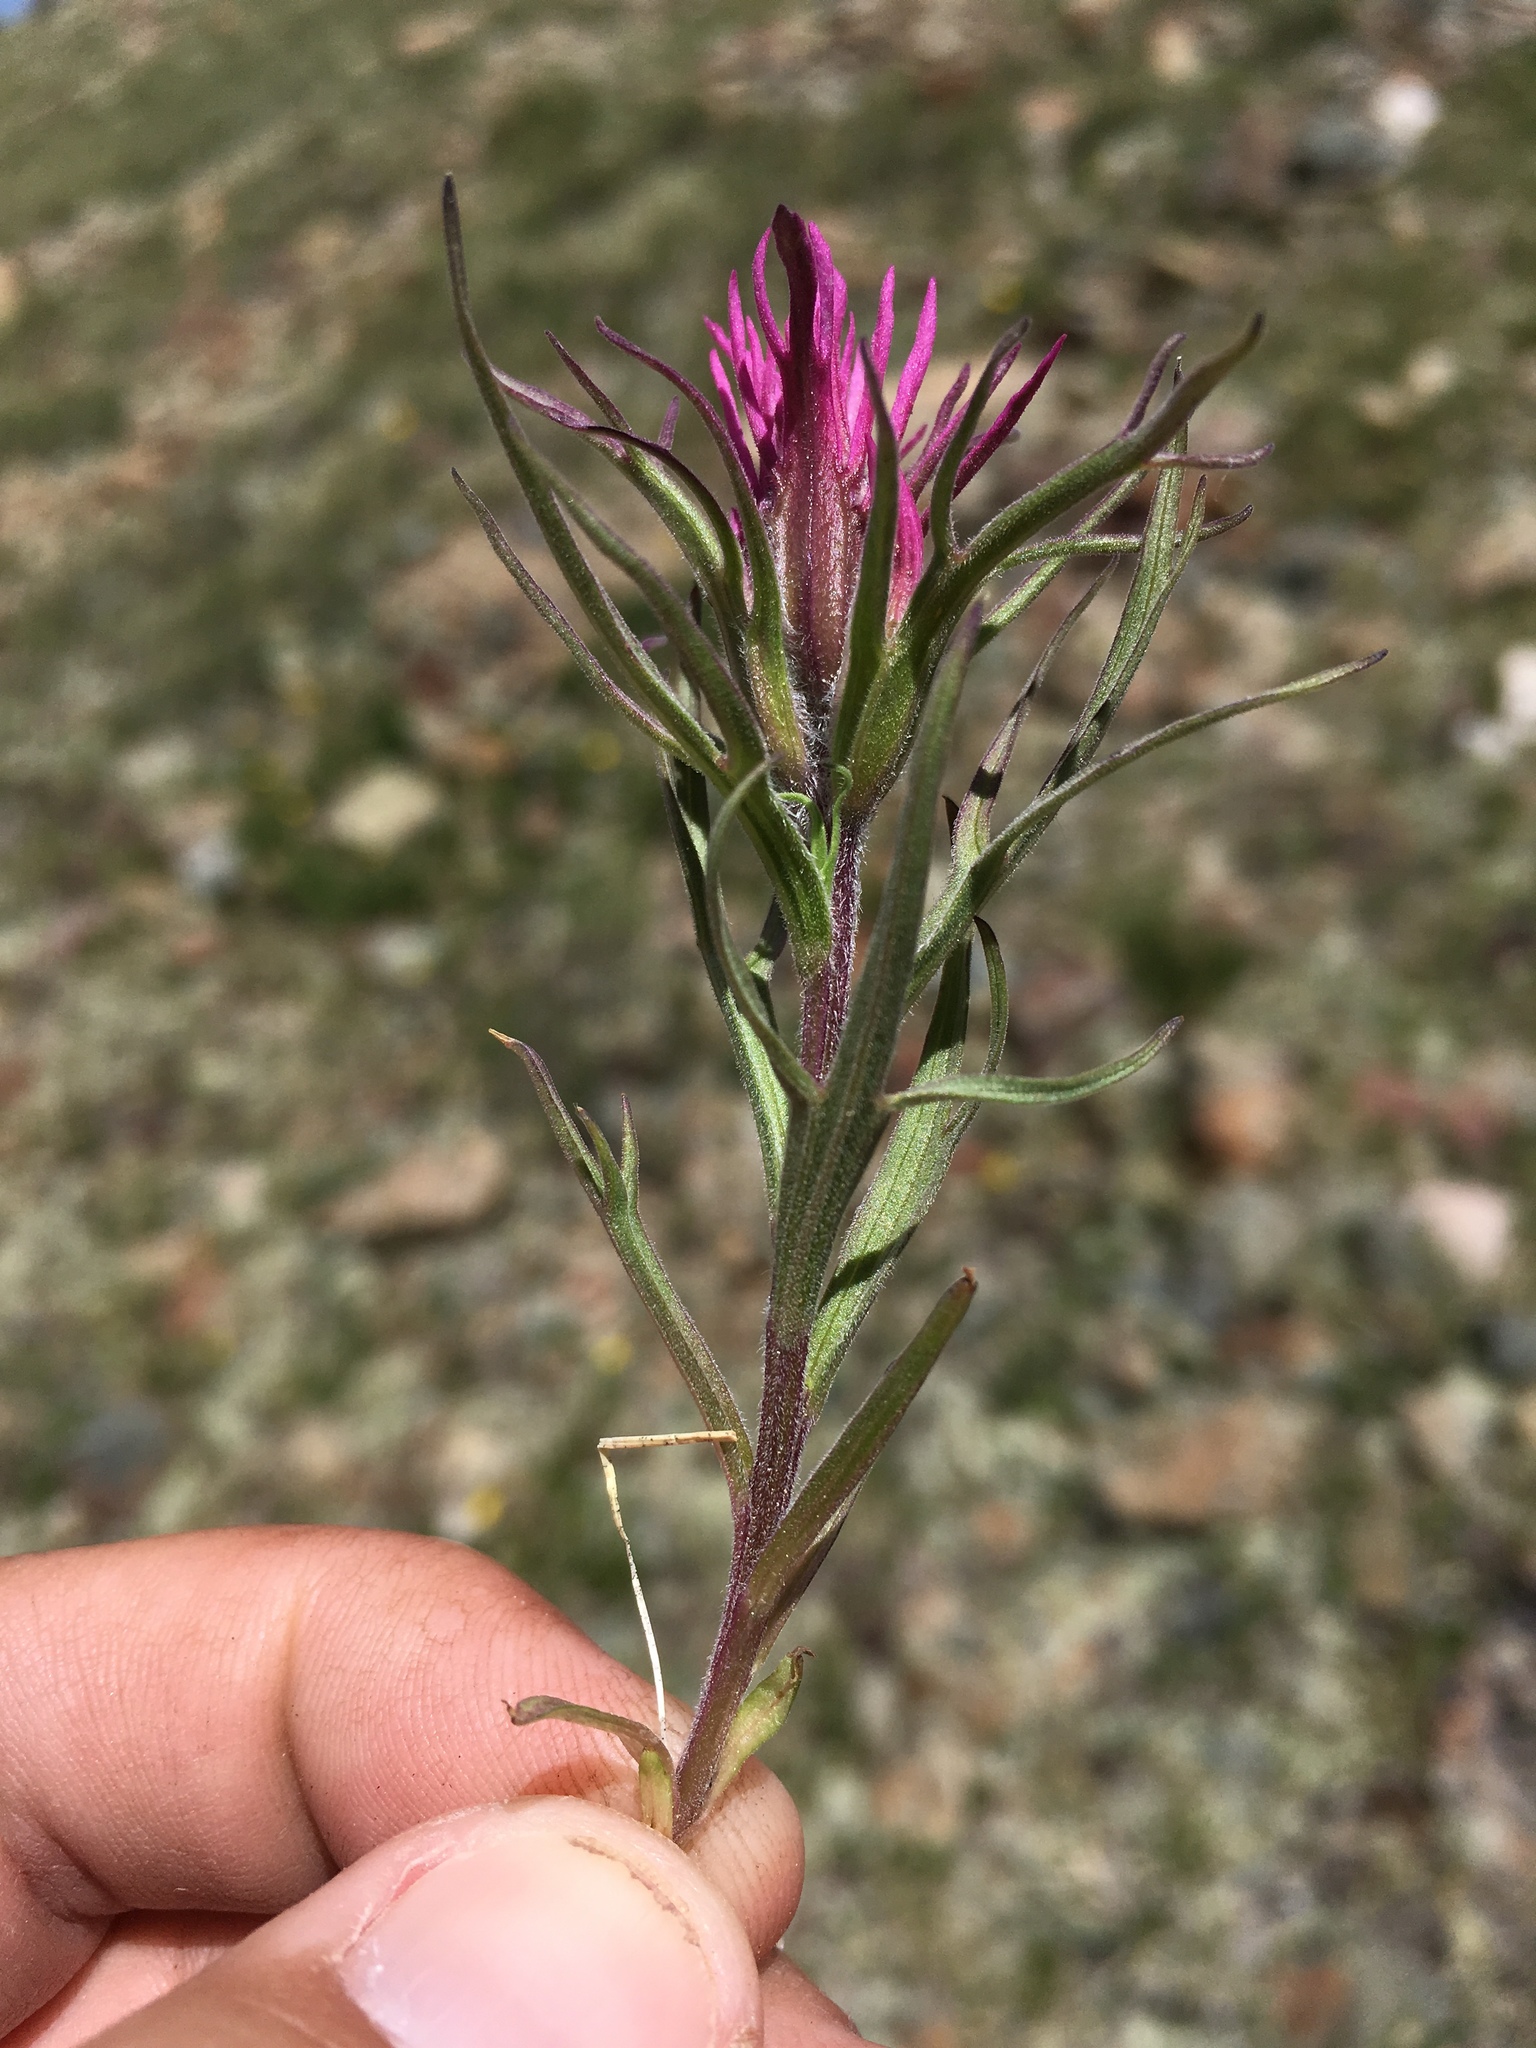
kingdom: Plantae
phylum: Tracheophyta
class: Magnoliopsida
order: Lamiales
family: Orobanchaceae
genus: Castilleja
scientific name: Castilleja haydenii
